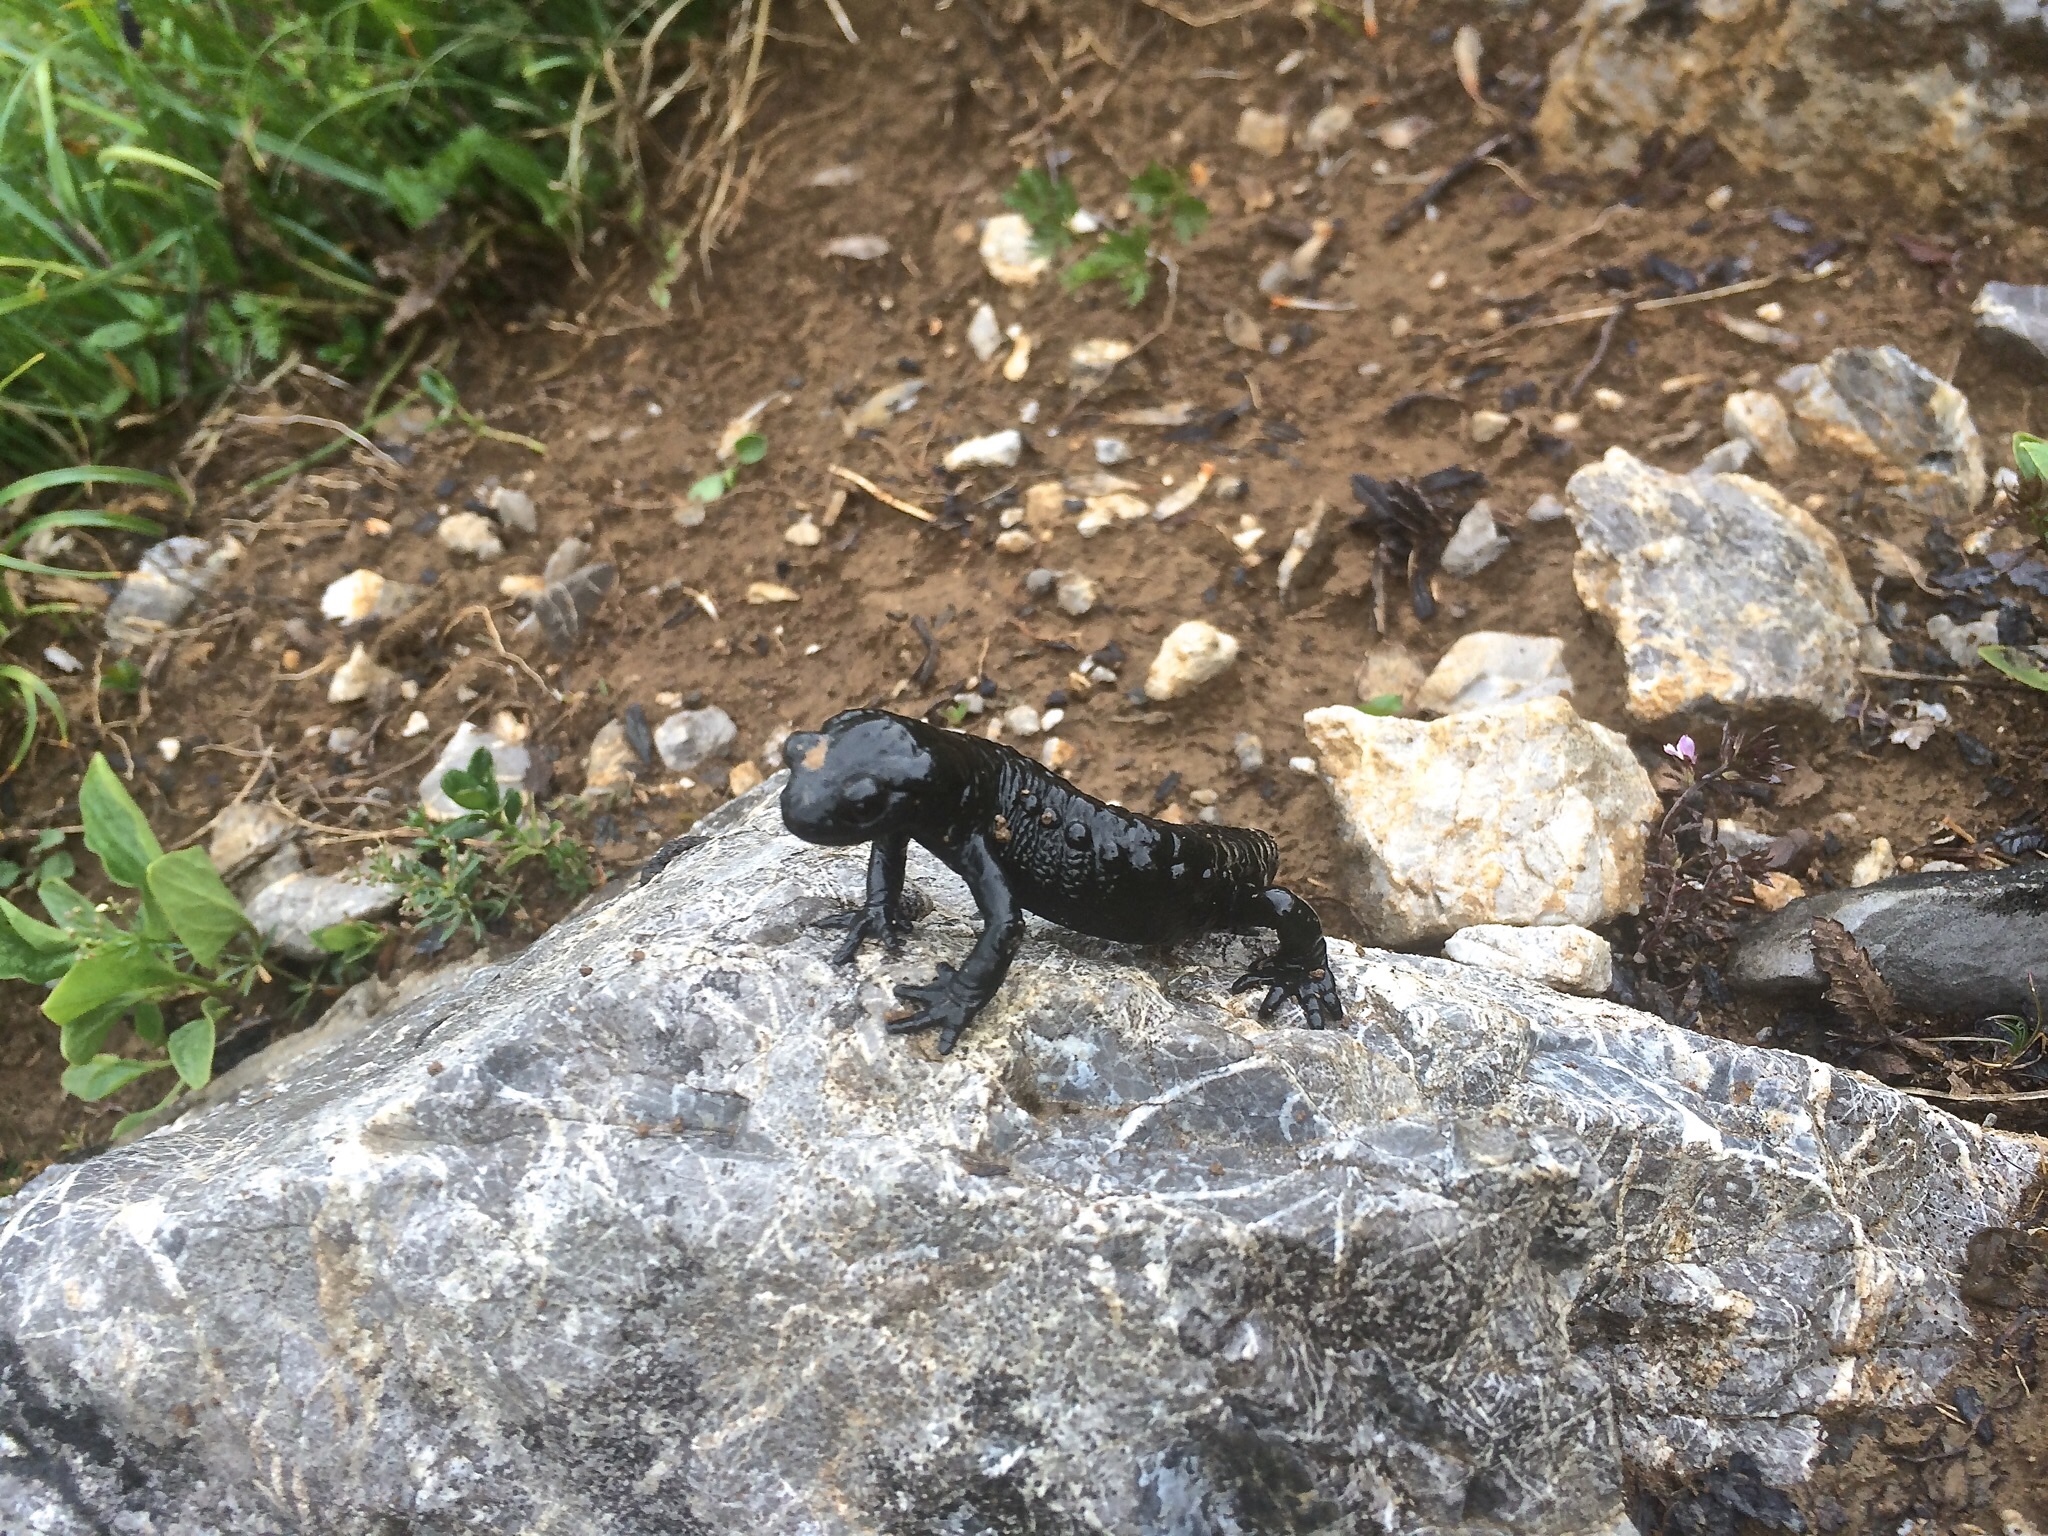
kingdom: Animalia
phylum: Chordata
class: Amphibia
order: Caudata
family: Salamandridae
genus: Salamandra
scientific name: Salamandra atra
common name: Alpine salamander
